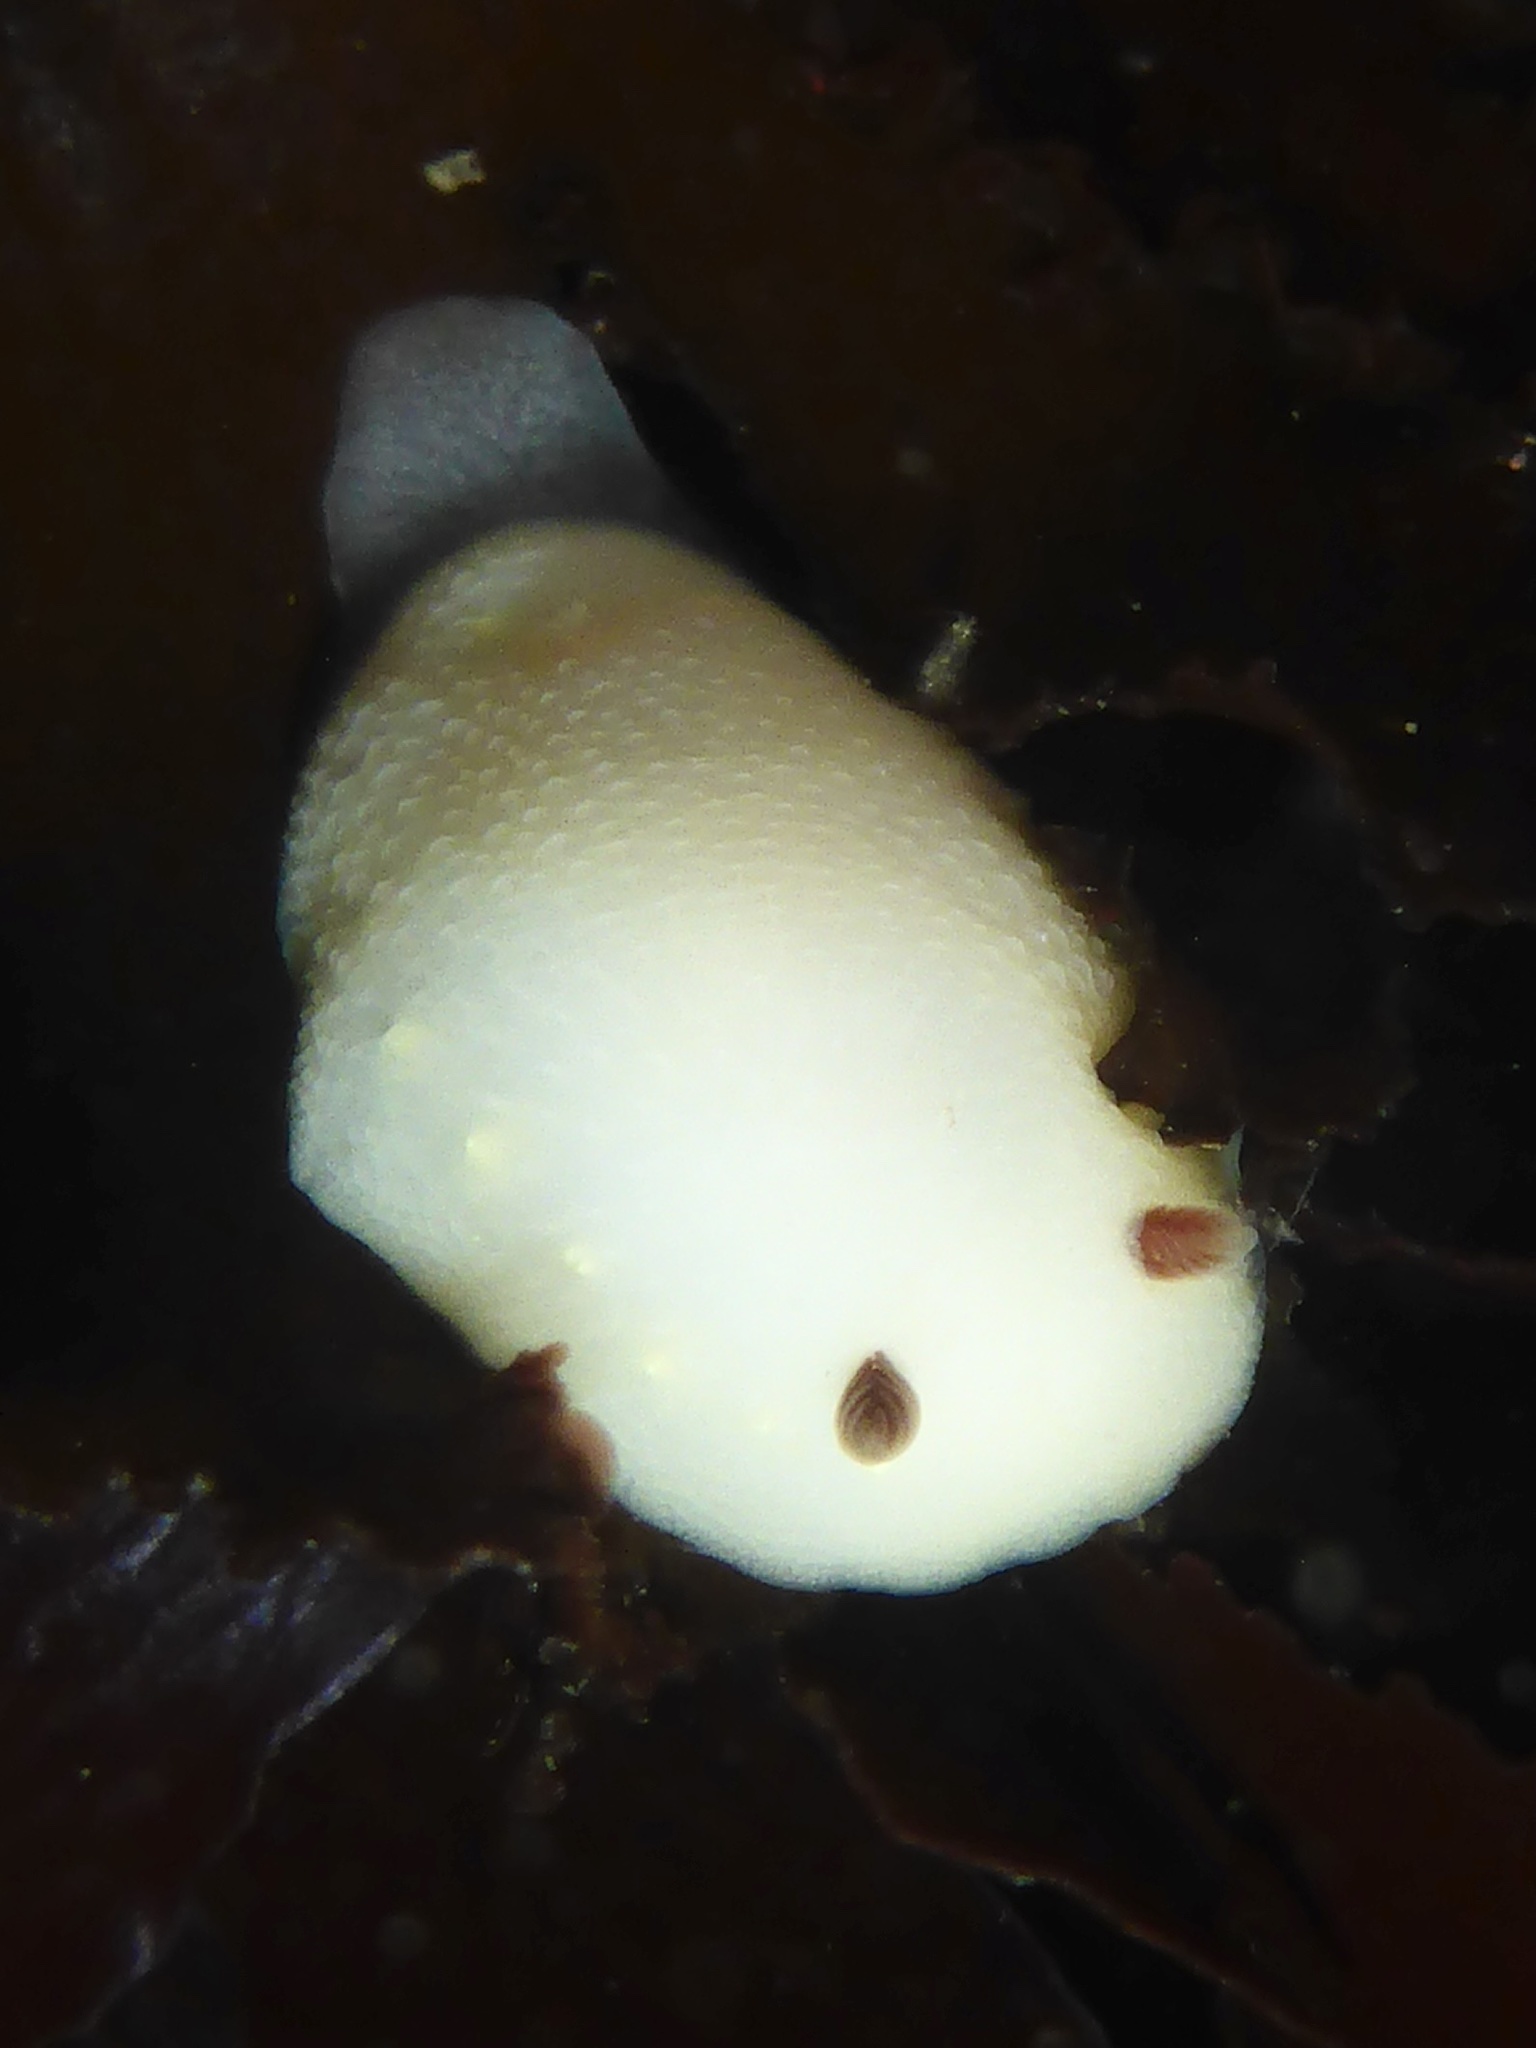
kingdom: Animalia
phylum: Mollusca
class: Gastropoda
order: Nudibranchia
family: Cadlinidae
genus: Cadlina
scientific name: Cadlina flavomaculata
